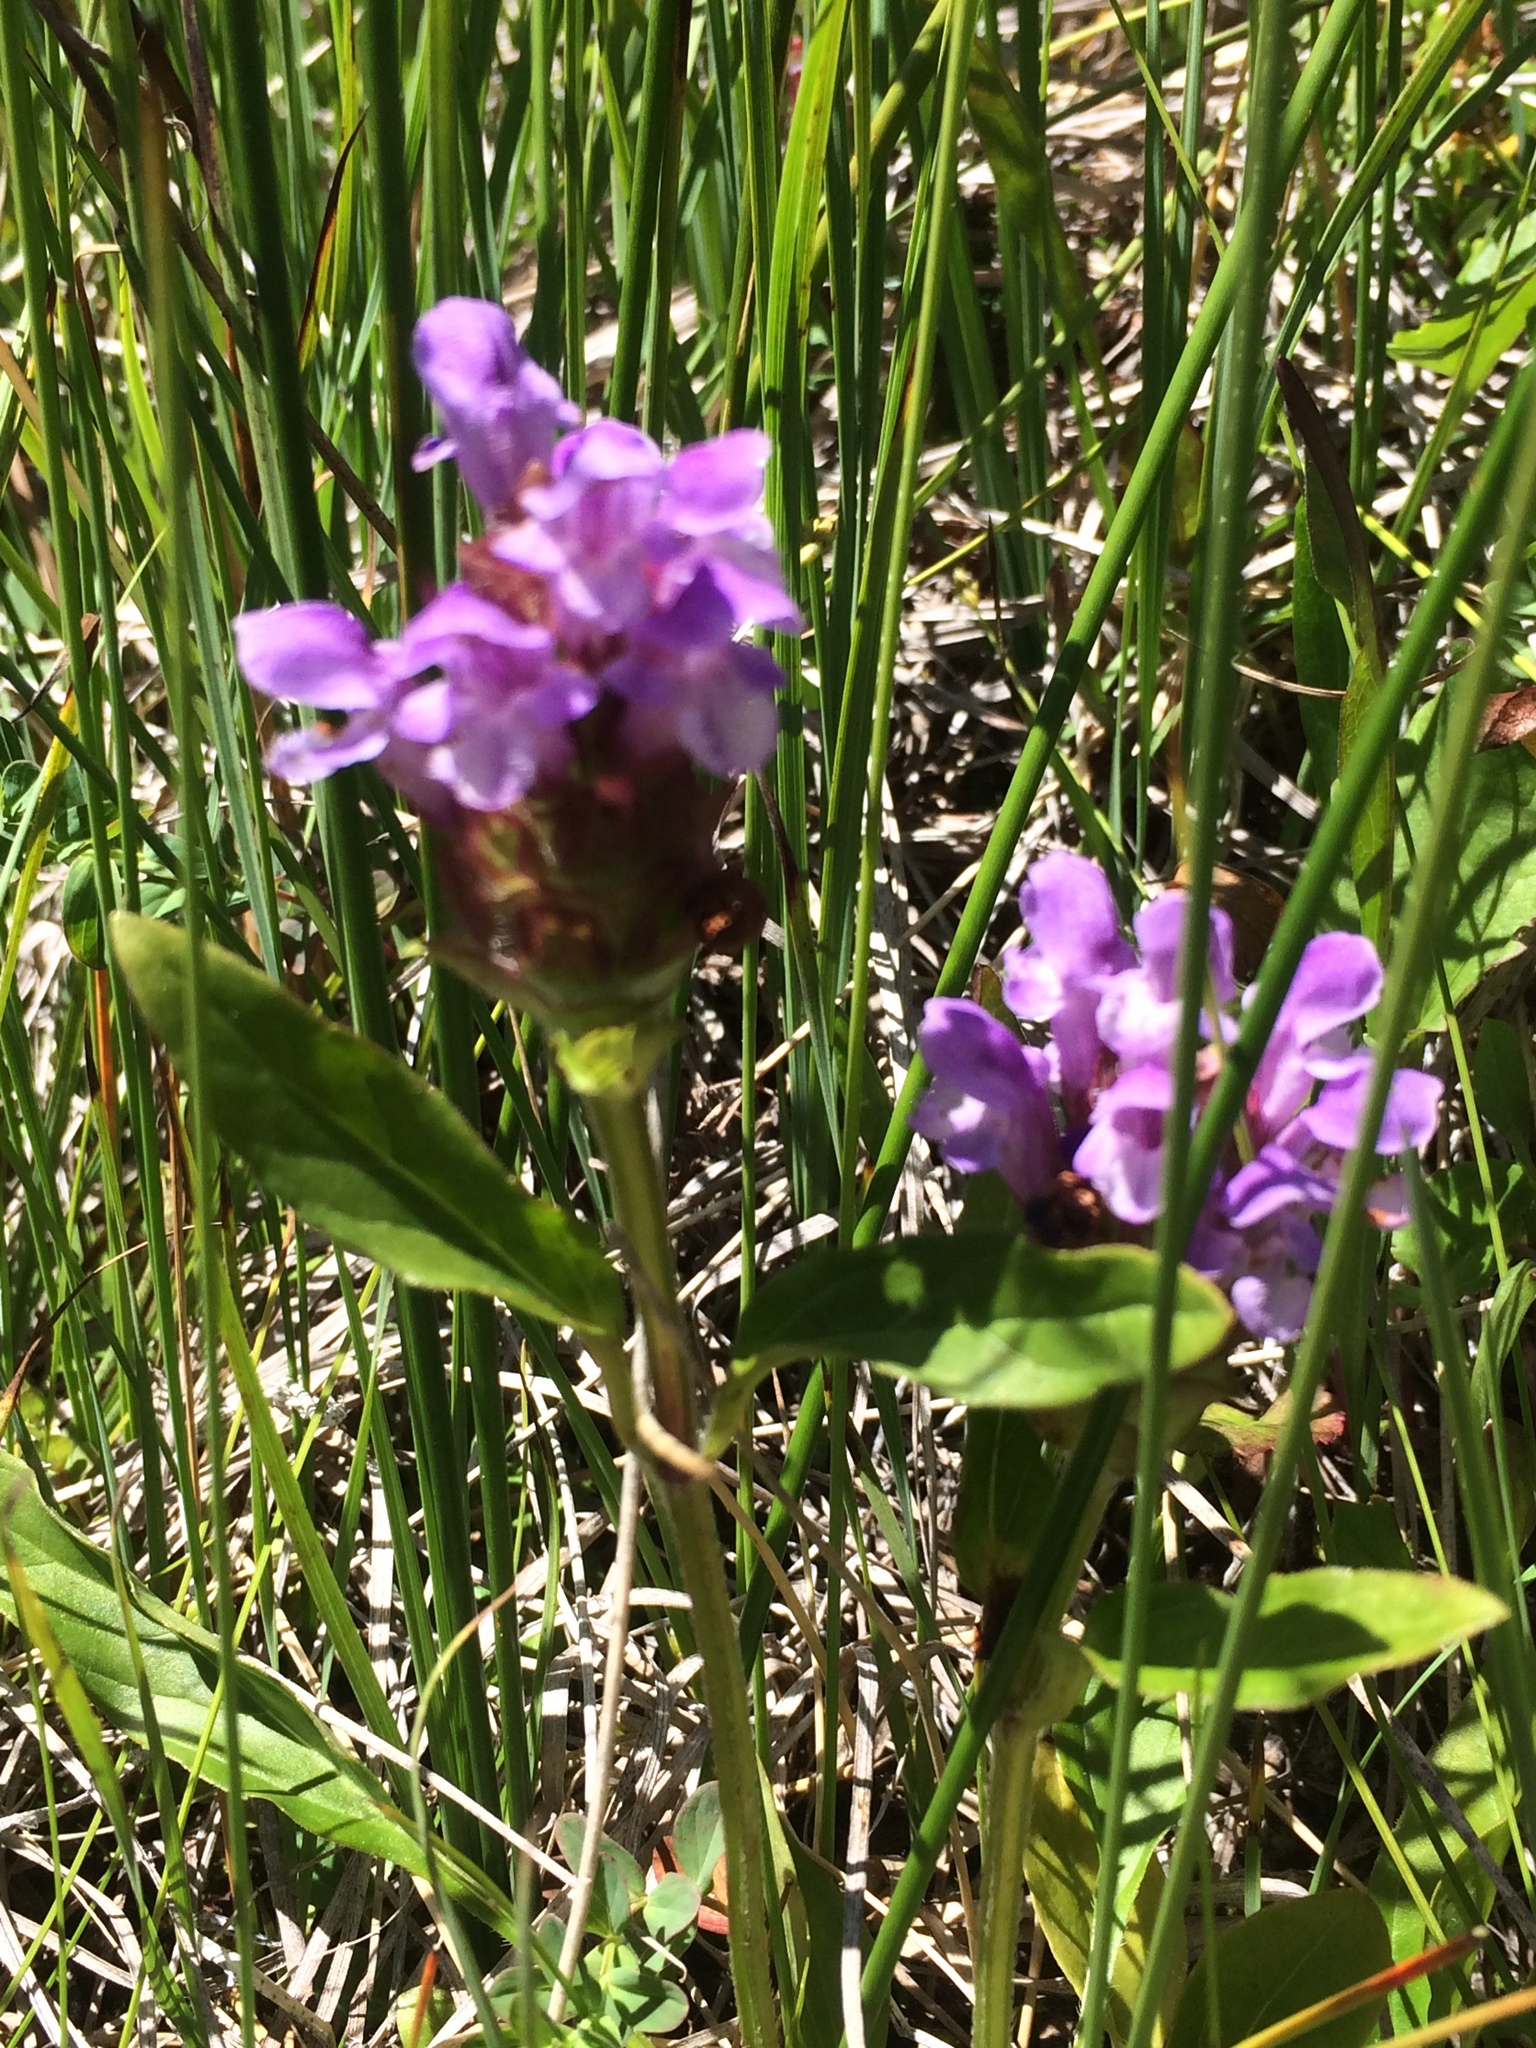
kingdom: Plantae
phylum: Tracheophyta
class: Magnoliopsida
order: Lamiales
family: Lamiaceae
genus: Prunella
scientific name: Prunella vulgaris
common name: Heal-all
